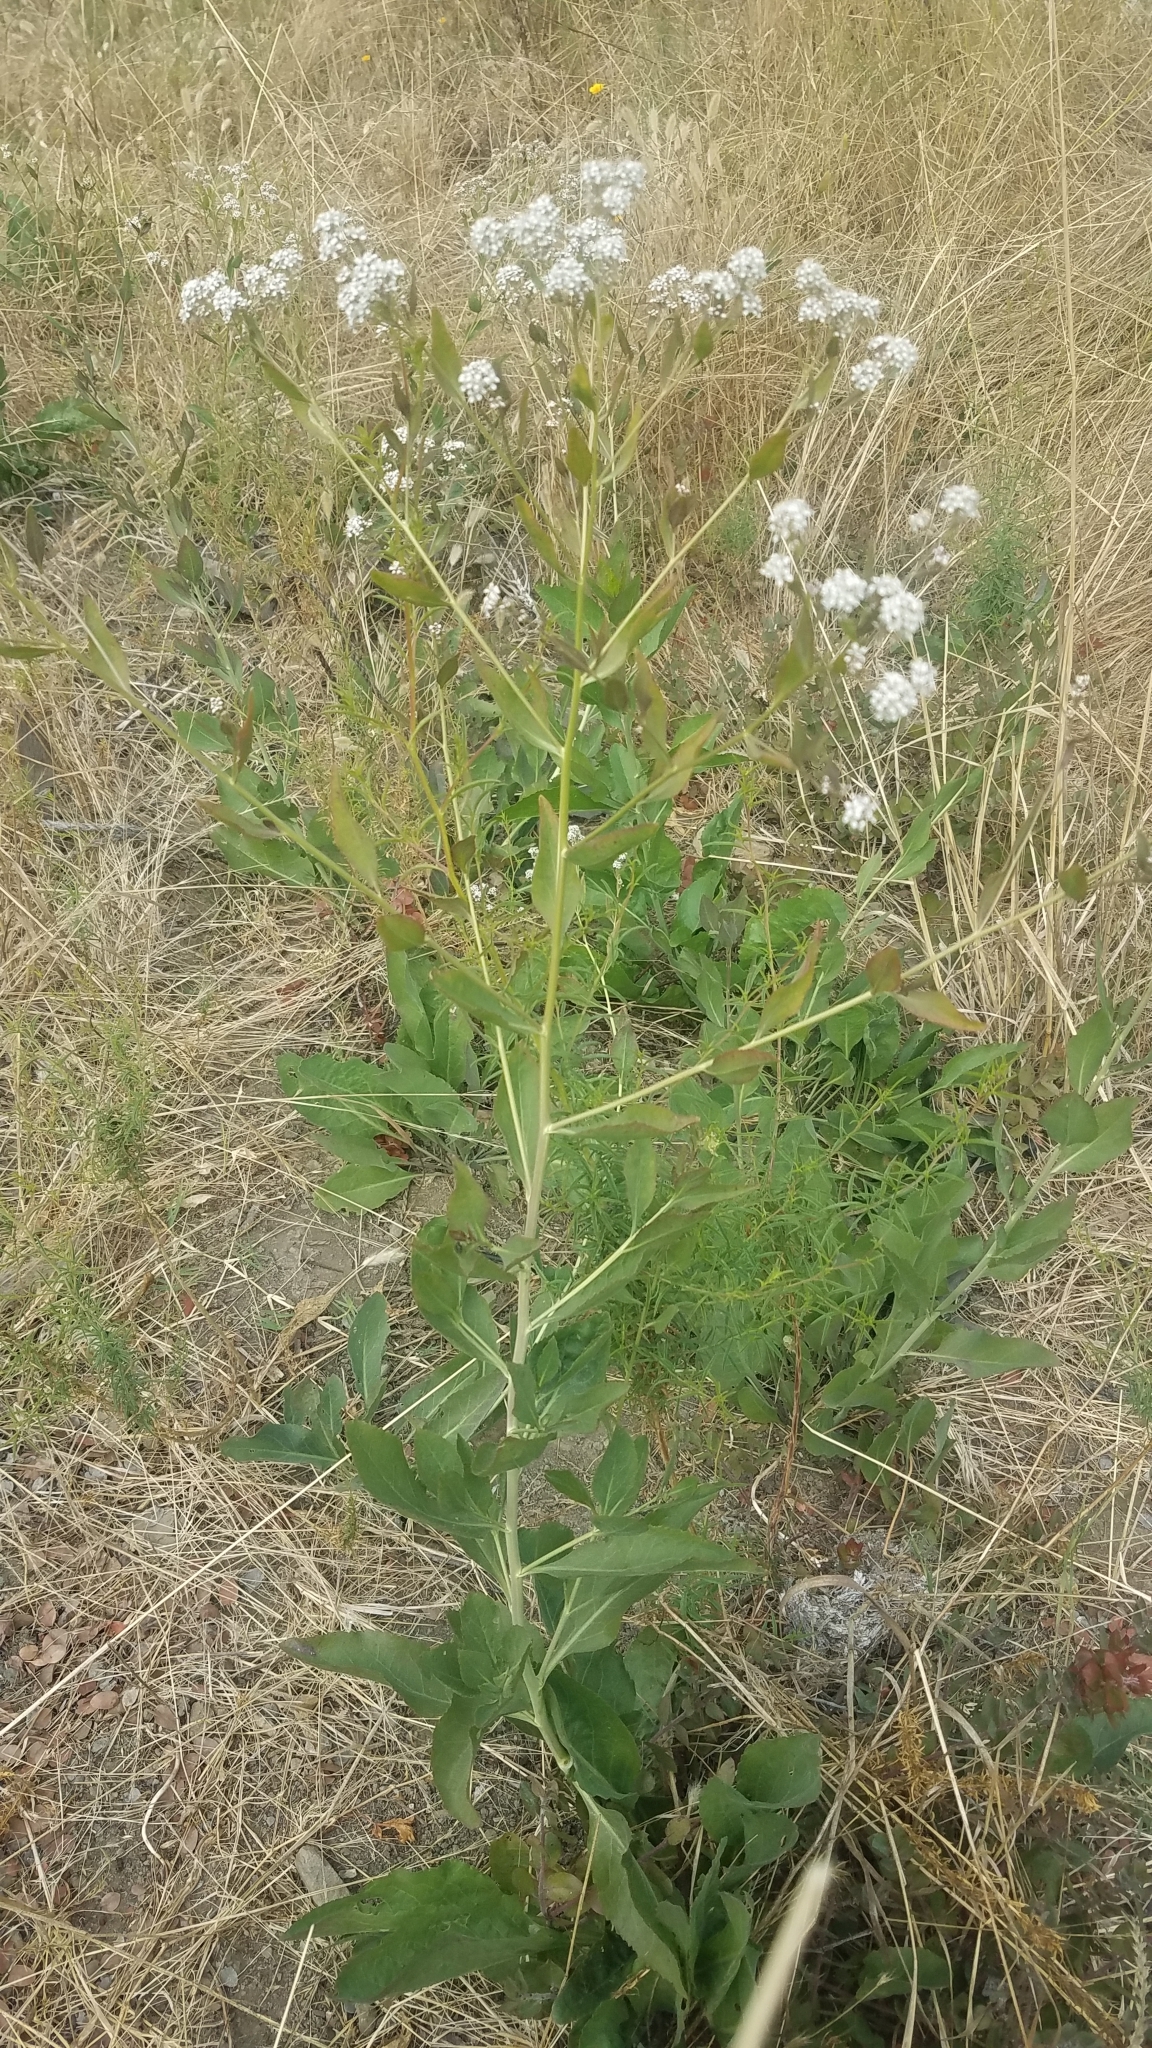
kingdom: Plantae
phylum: Tracheophyta
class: Magnoliopsida
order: Brassicales
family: Brassicaceae
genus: Lepidium
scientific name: Lepidium latifolium
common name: Dittander
